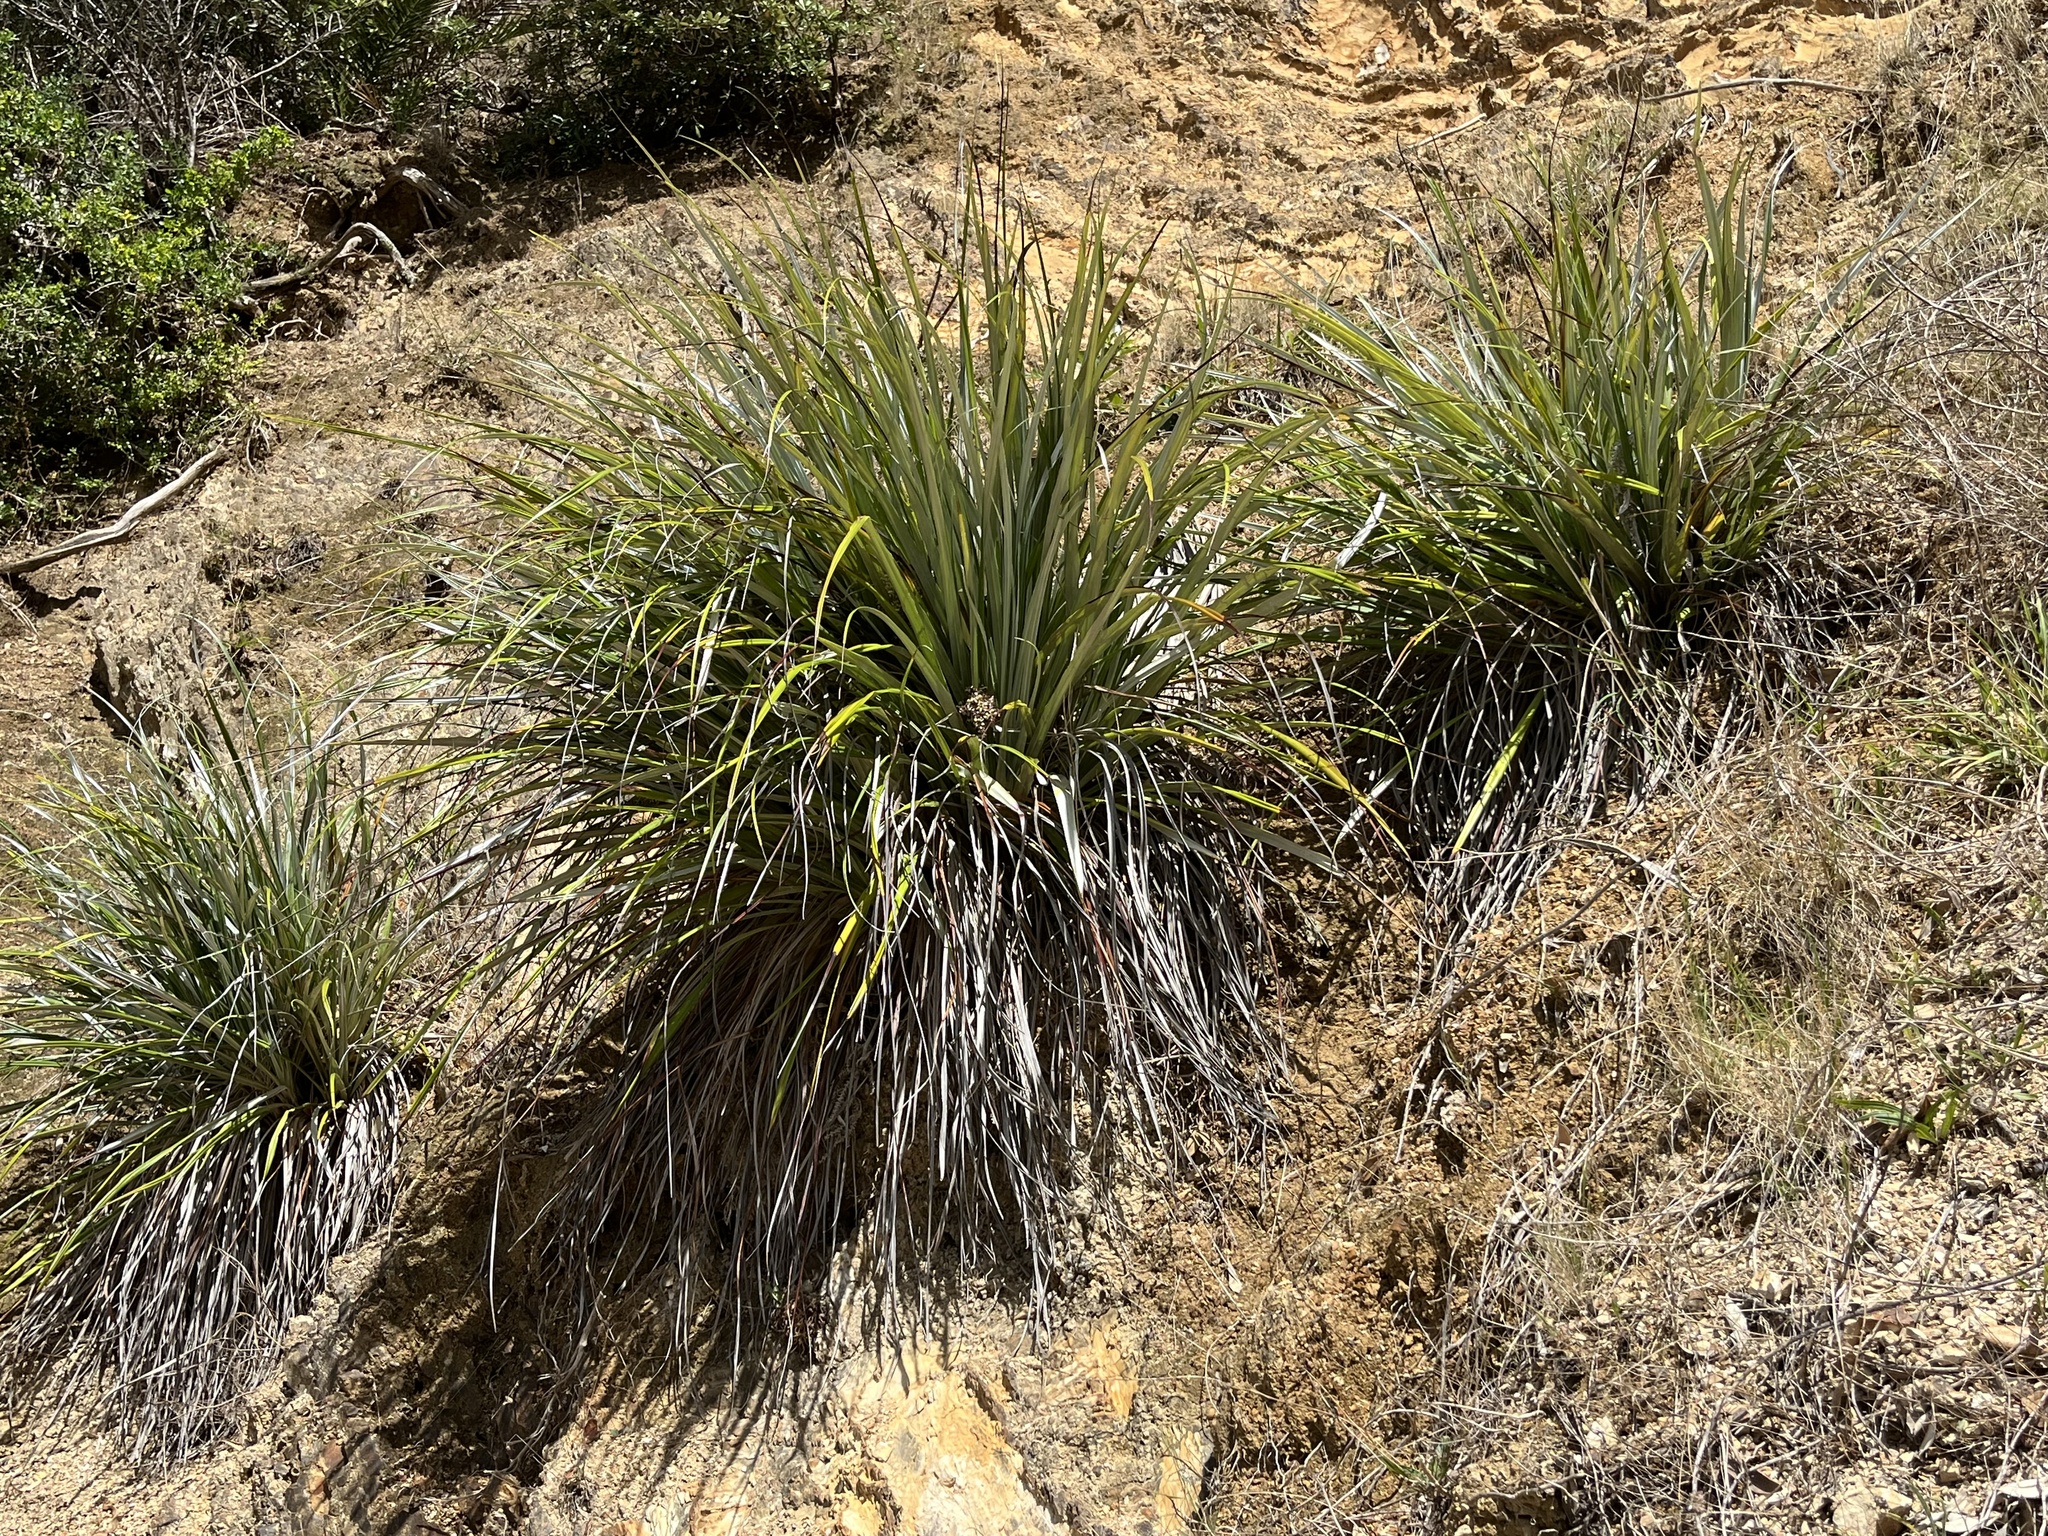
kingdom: Plantae
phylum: Tracheophyta
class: Liliopsida
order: Asparagales
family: Asteliaceae
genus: Astelia
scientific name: Astelia banksii
